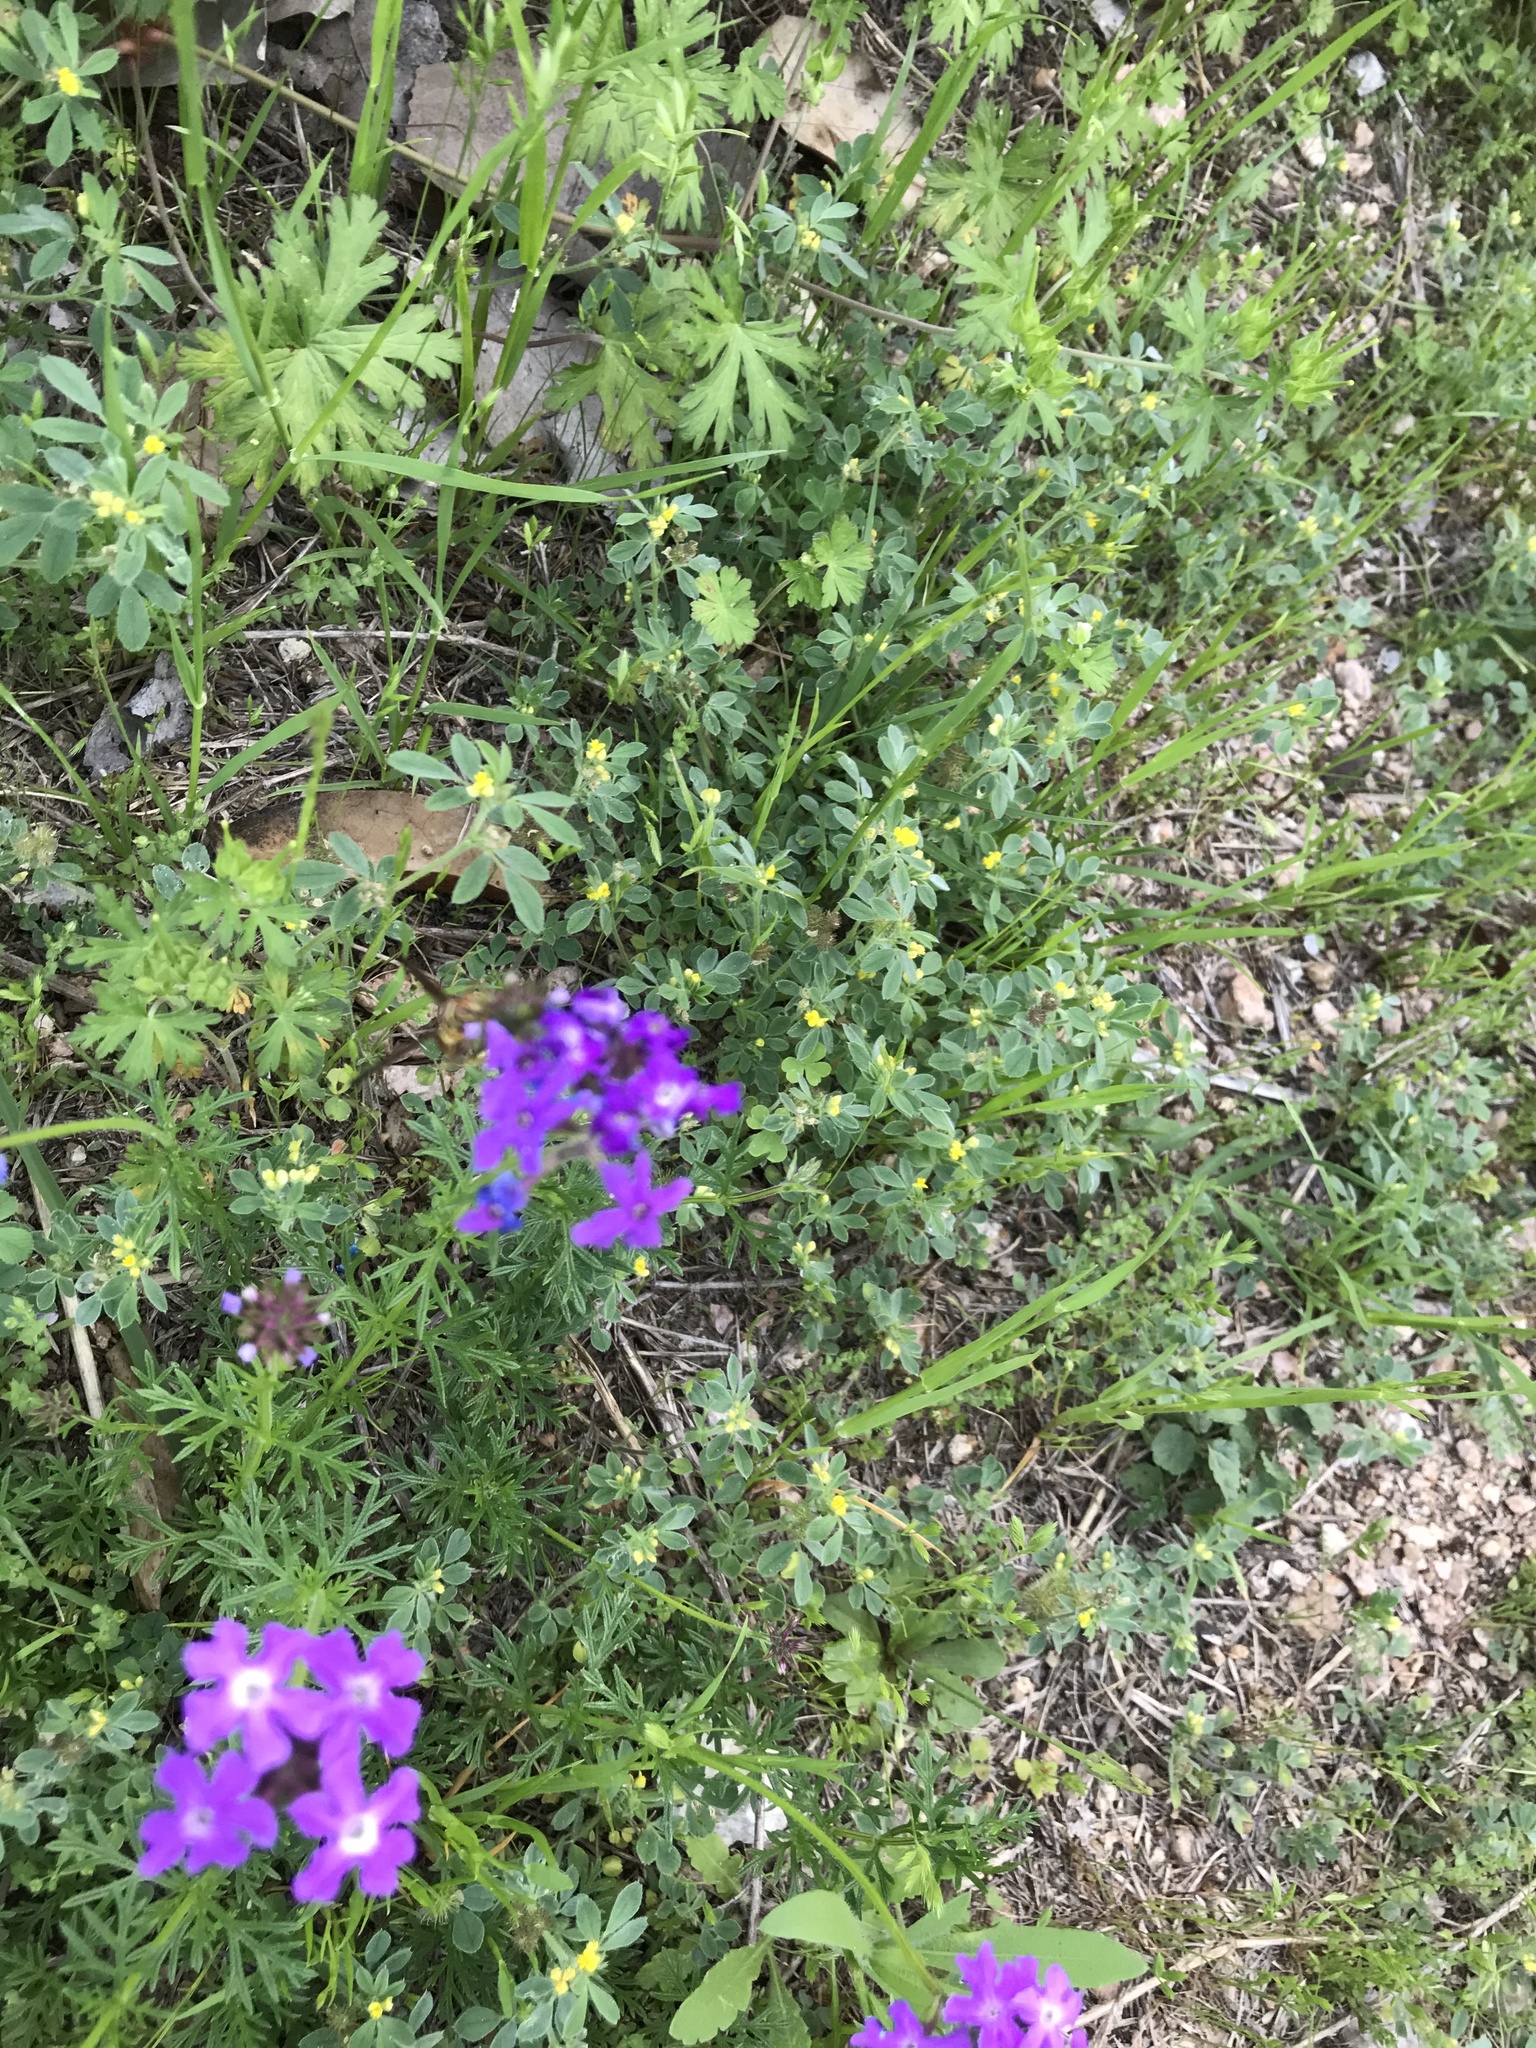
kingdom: Animalia
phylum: Arthropoda
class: Insecta
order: Hymenoptera
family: Eumenidae
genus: Polistes
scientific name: Polistes exclamans
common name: Paper wasp
